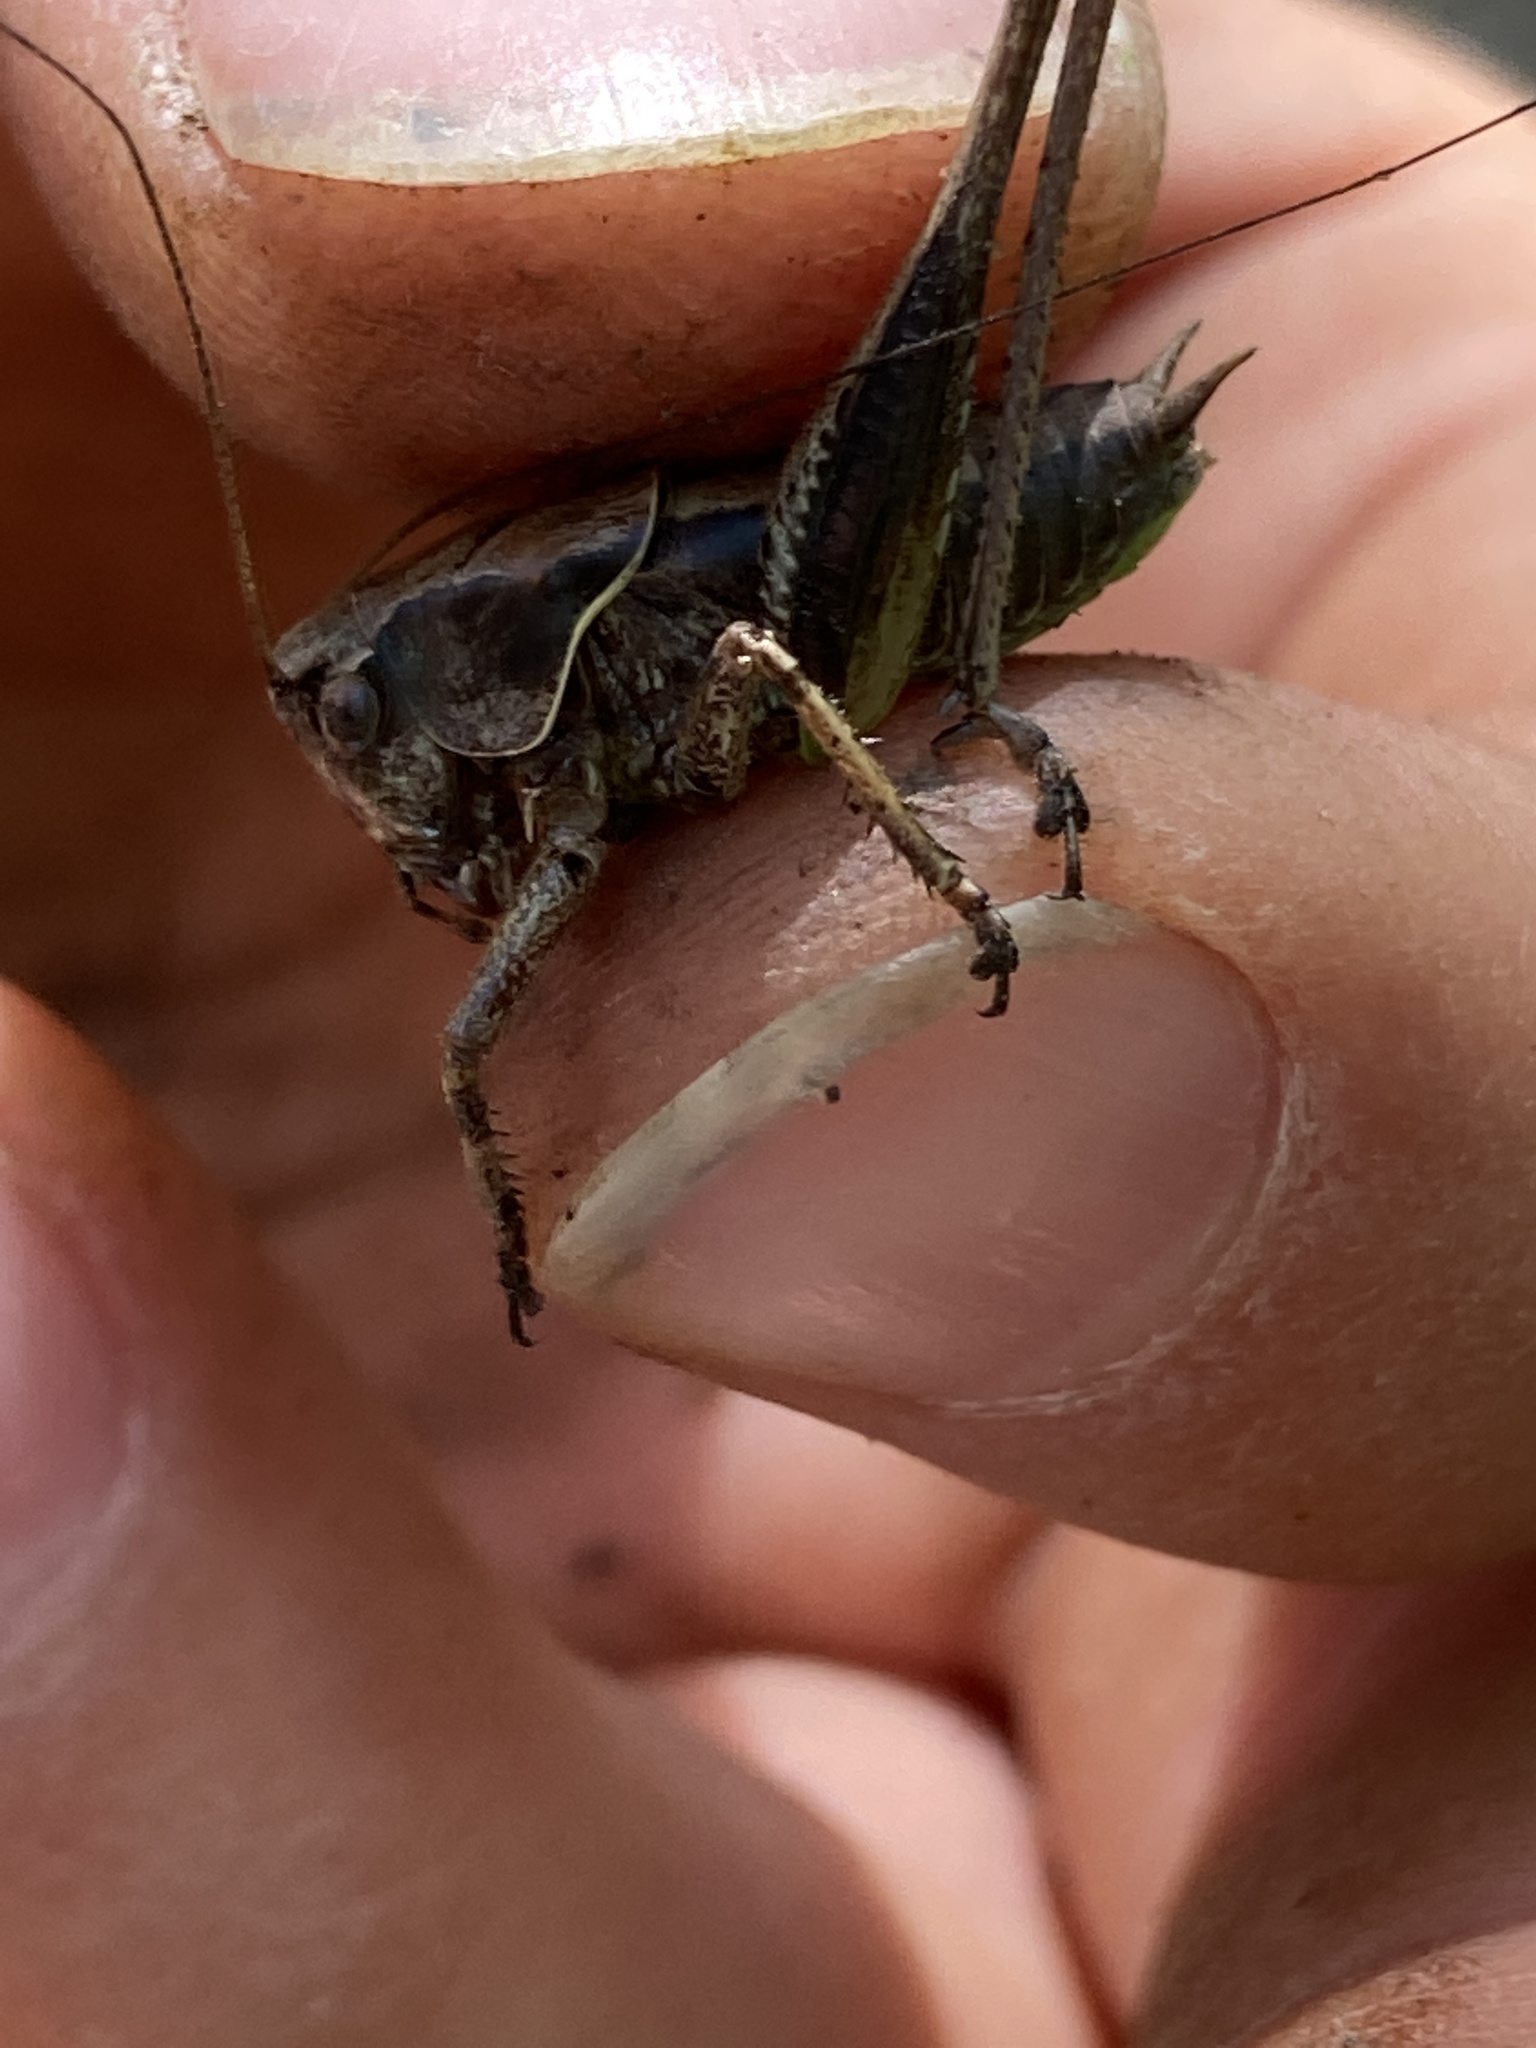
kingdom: Animalia
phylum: Arthropoda
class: Insecta
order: Orthoptera
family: Tettigoniidae
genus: Pholidoptera
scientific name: Pholidoptera griseoaptera
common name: Dark bush-cricket
